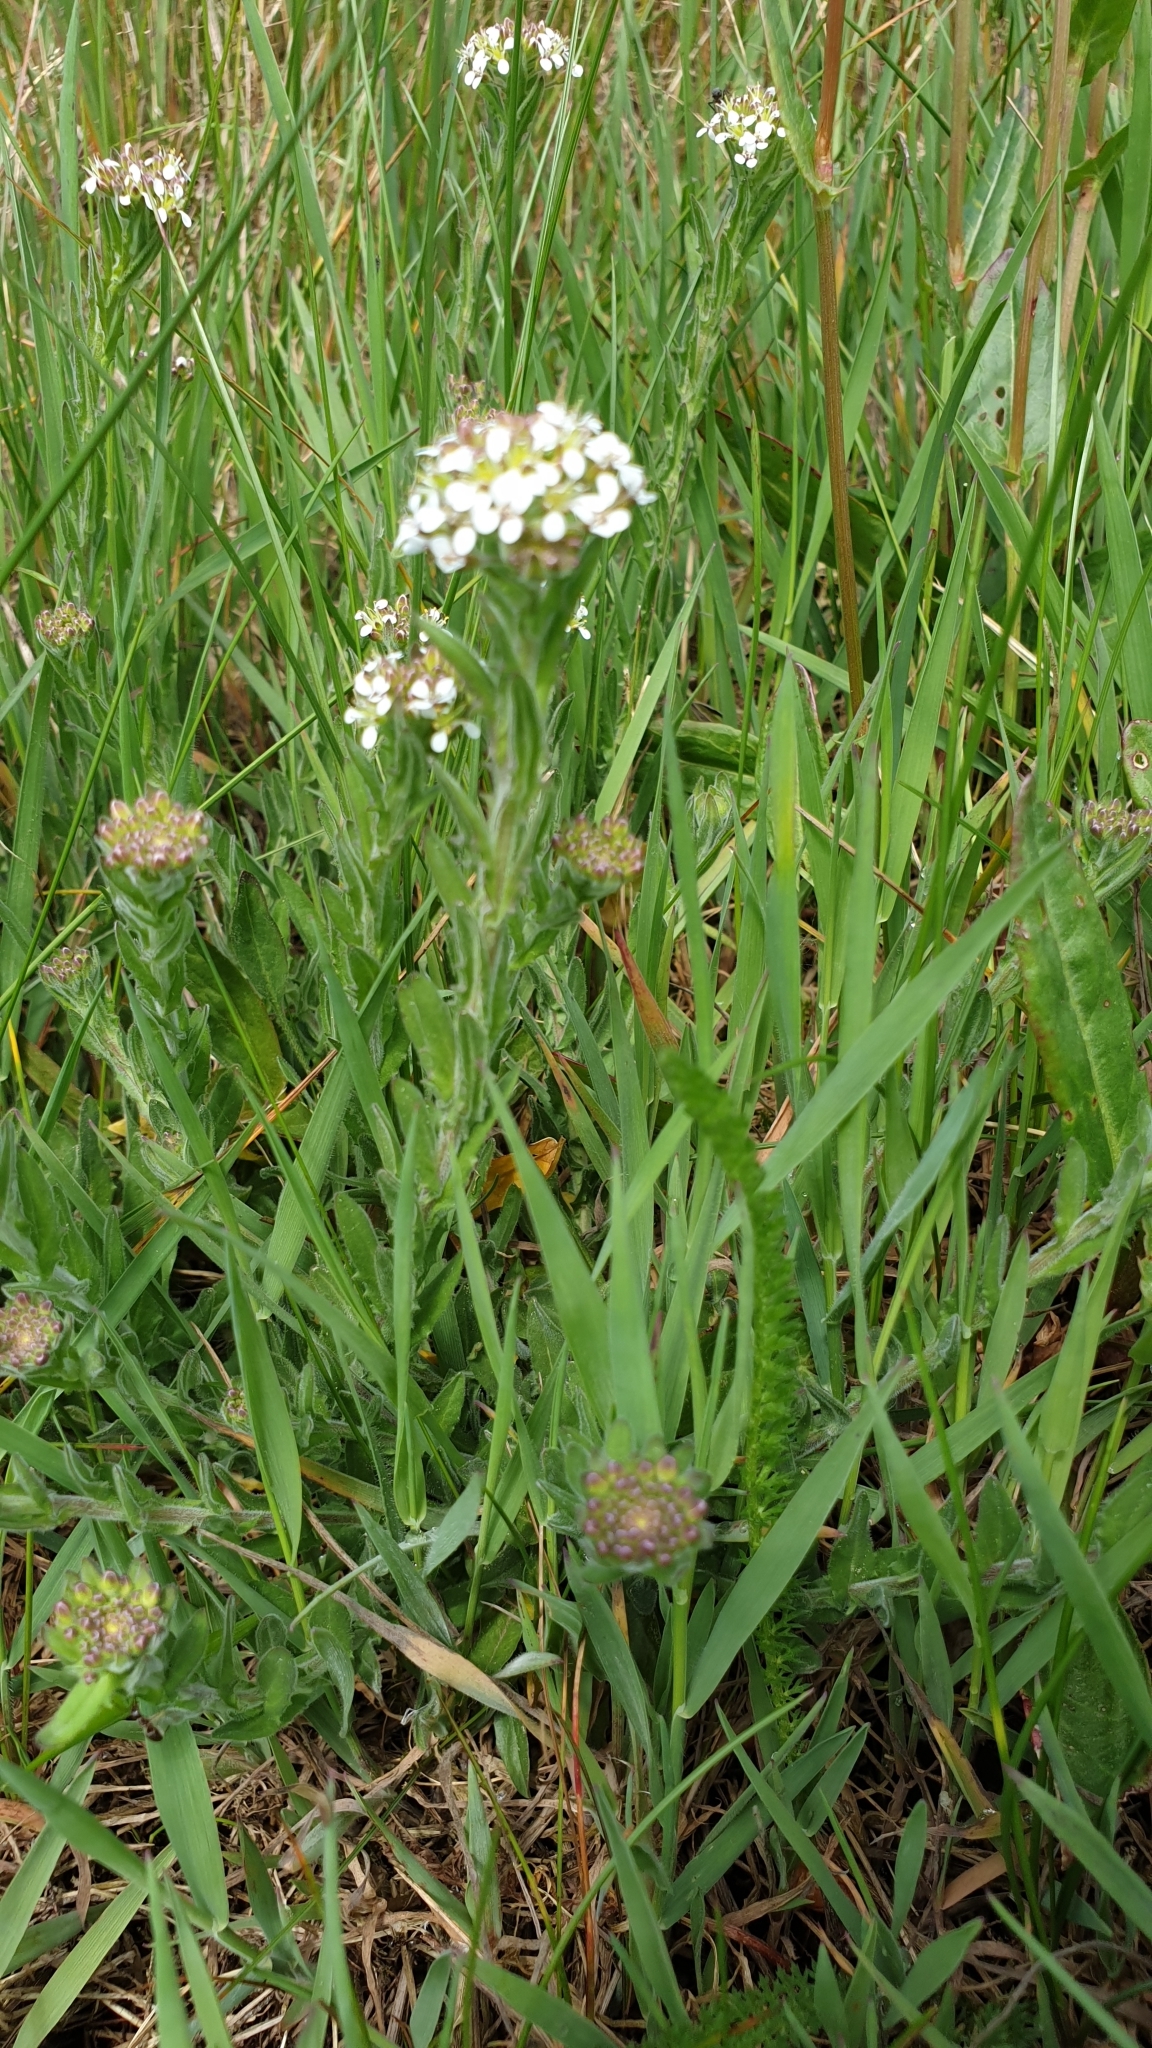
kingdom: Plantae
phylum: Tracheophyta
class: Magnoliopsida
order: Brassicales
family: Brassicaceae
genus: Lepidium
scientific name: Lepidium campestre
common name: Field pepperwort
